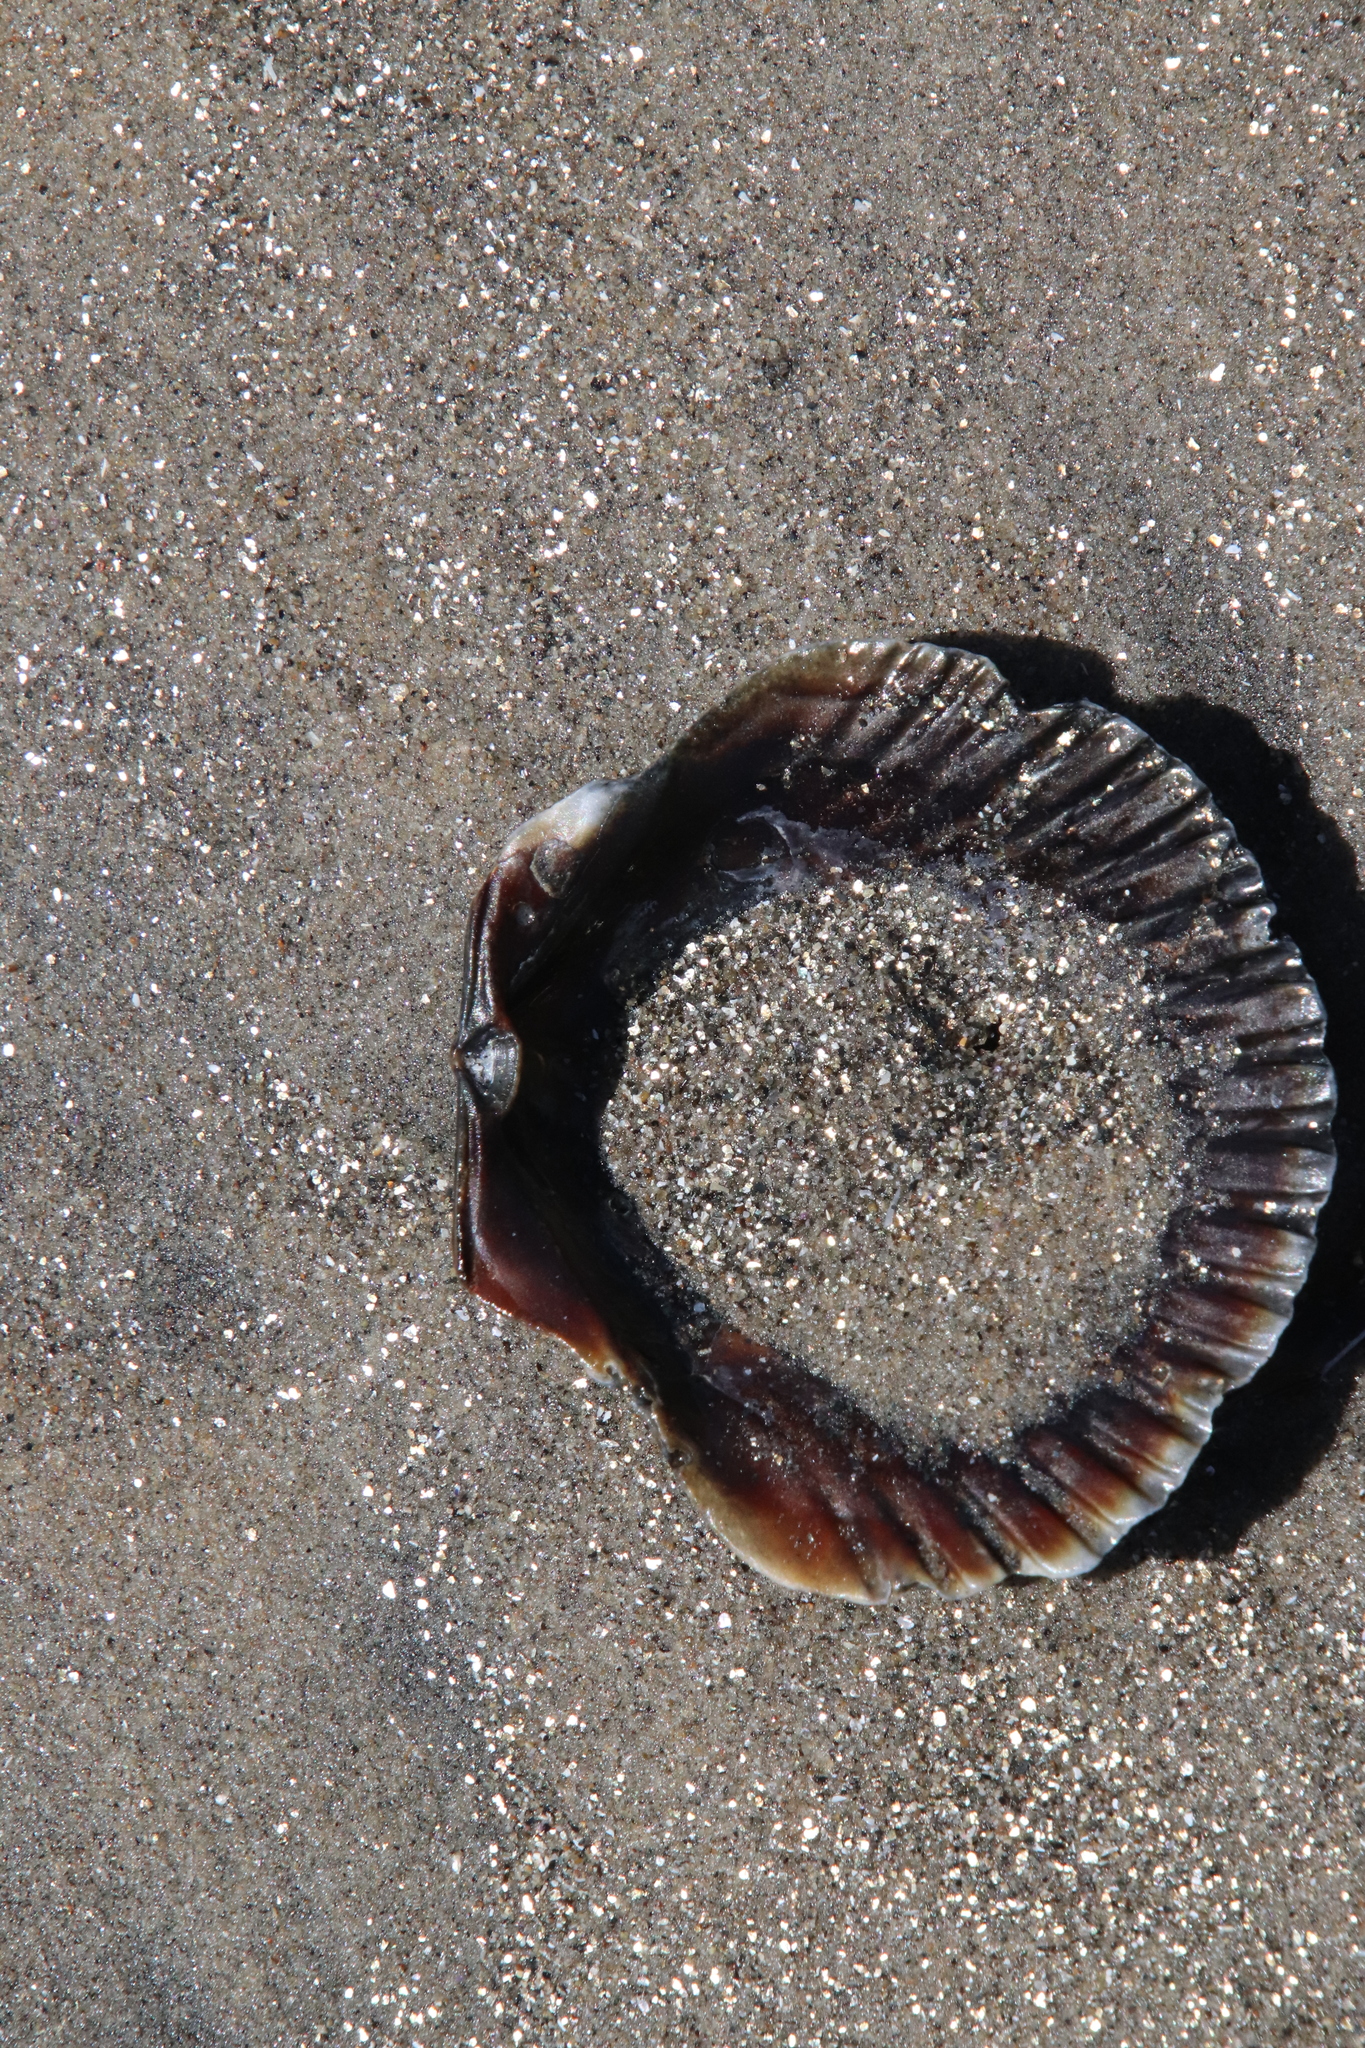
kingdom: Animalia
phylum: Mollusca
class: Bivalvia
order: Pectinida
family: Pectinidae
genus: Argopecten
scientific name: Argopecten ventricosus
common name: Catarina scallop
